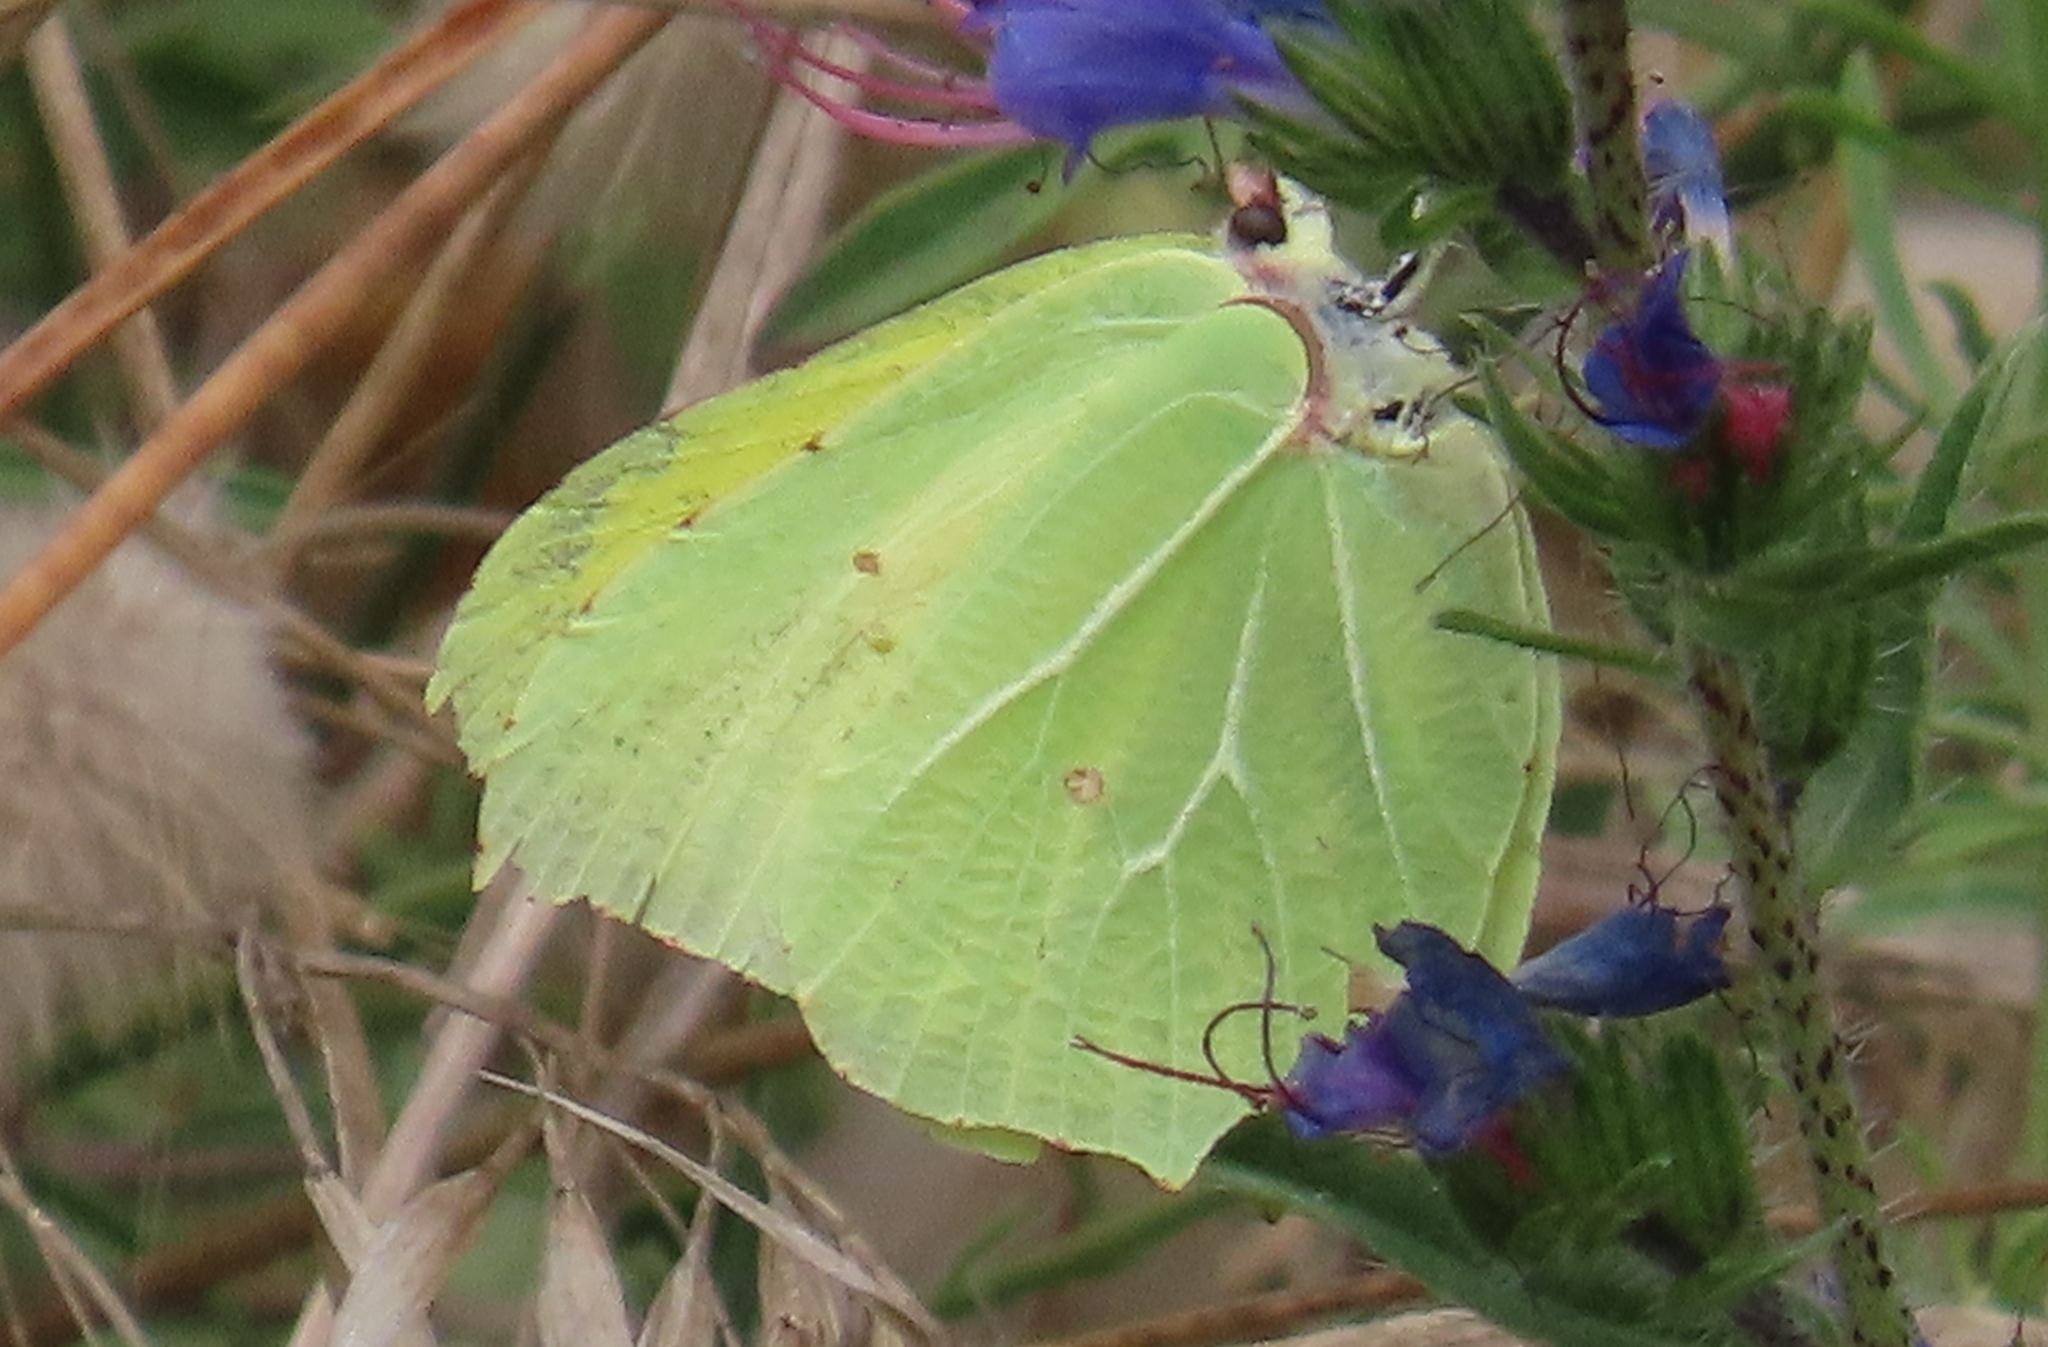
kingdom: Animalia
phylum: Arthropoda
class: Insecta
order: Lepidoptera
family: Pieridae
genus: Gonepteryx
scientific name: Gonepteryx rhamni
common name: Brimstone
